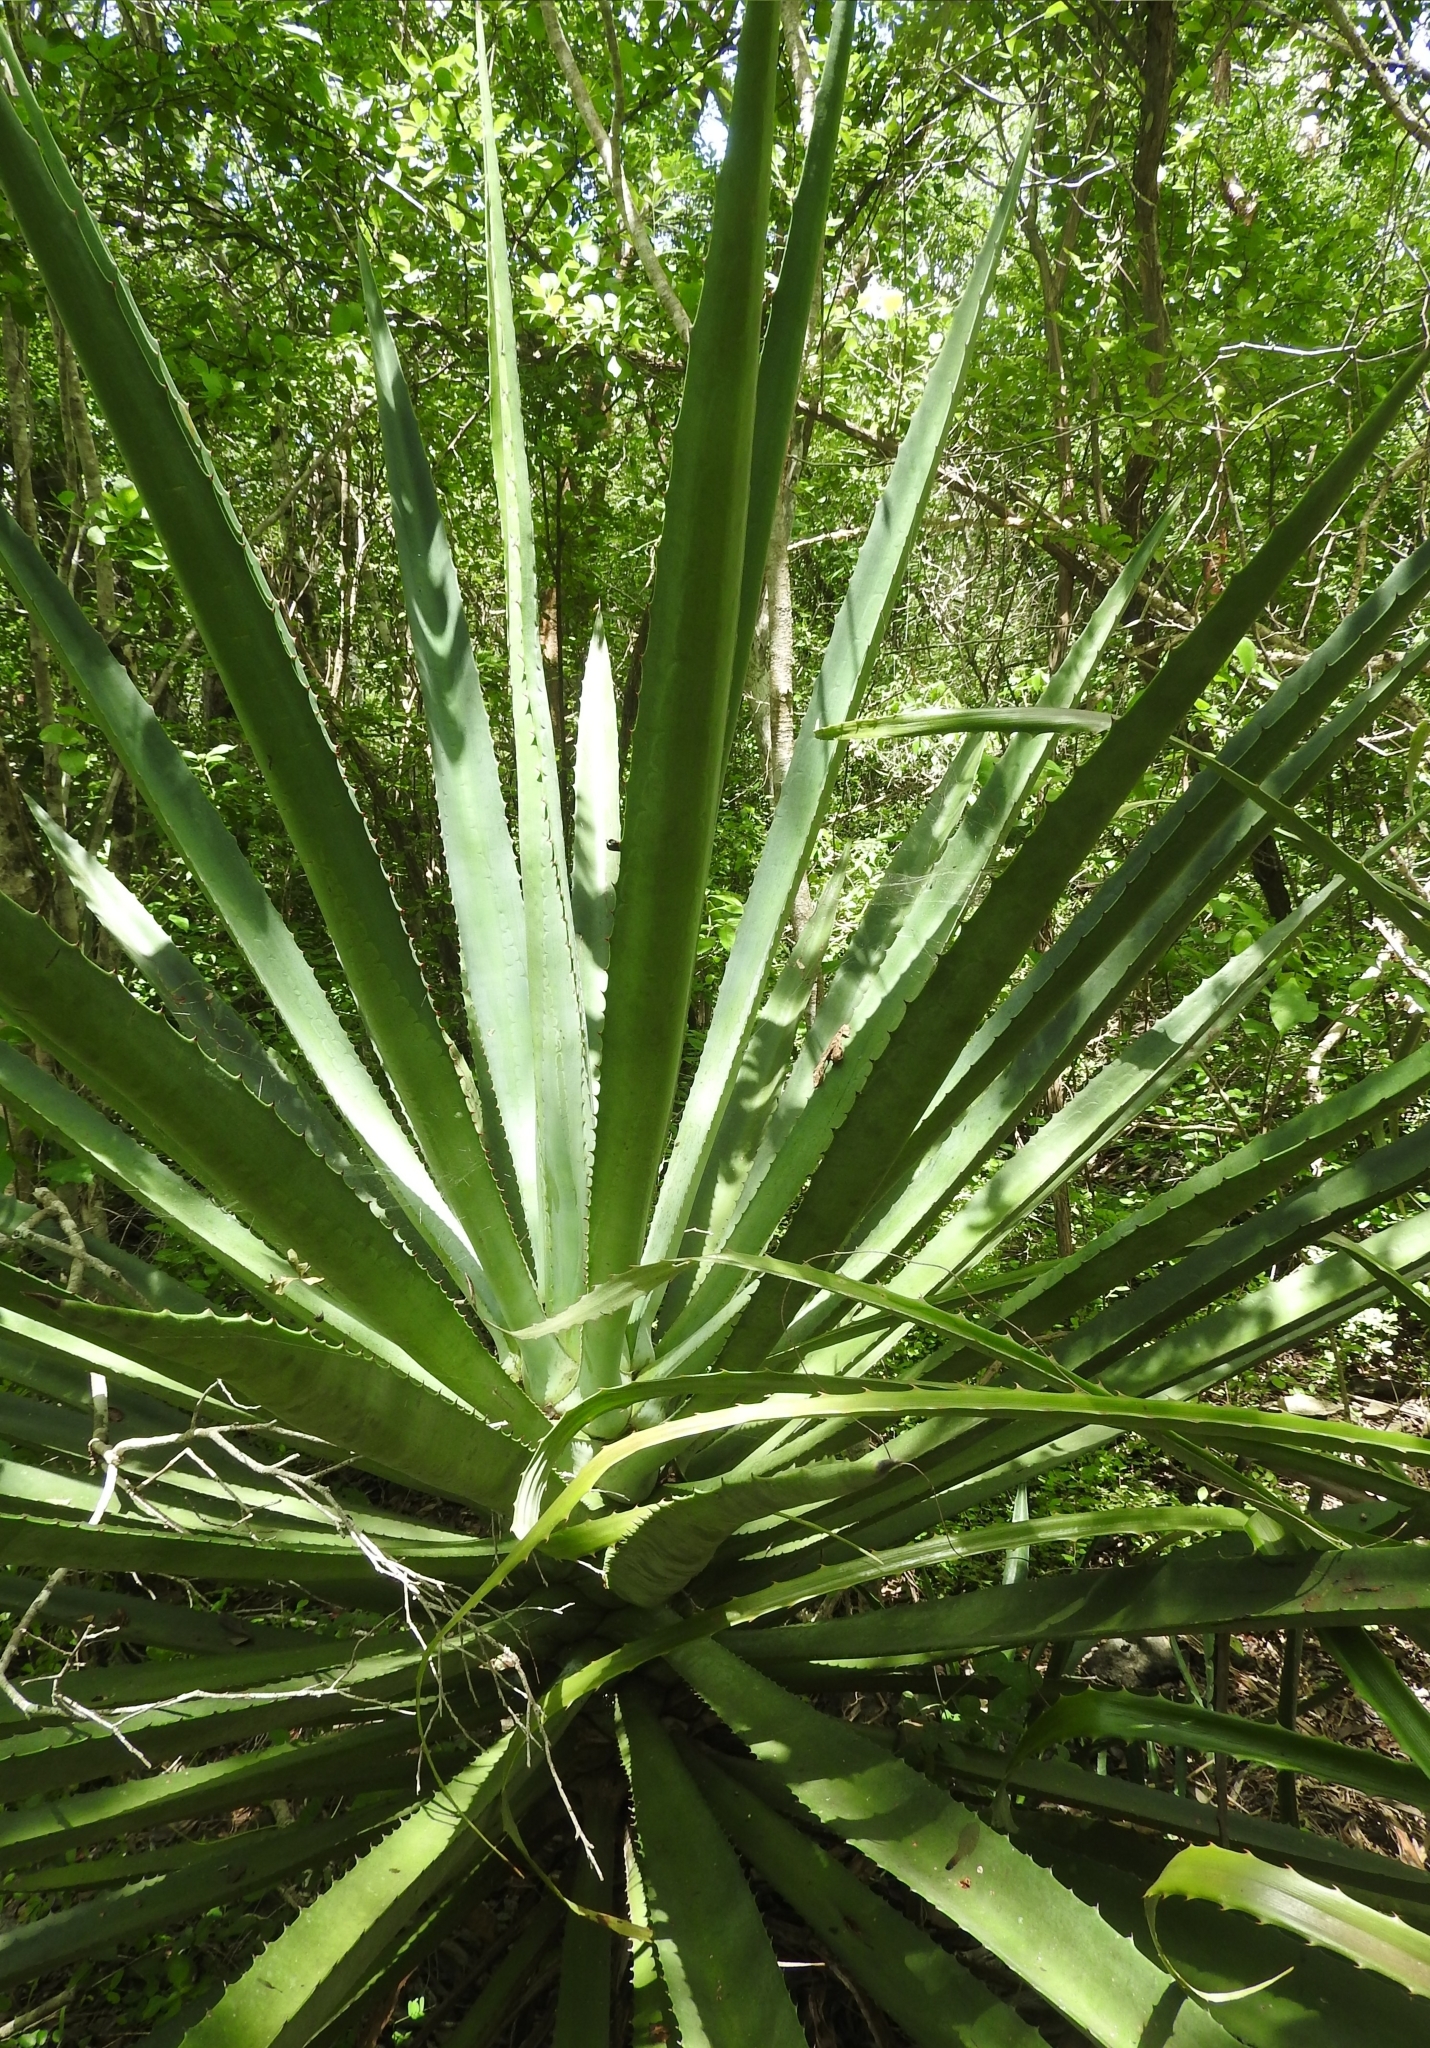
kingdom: Plantae
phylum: Tracheophyta
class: Liliopsida
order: Asparagales
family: Asparagaceae
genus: Agave
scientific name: Agave angustifolia
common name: Mescal agave
